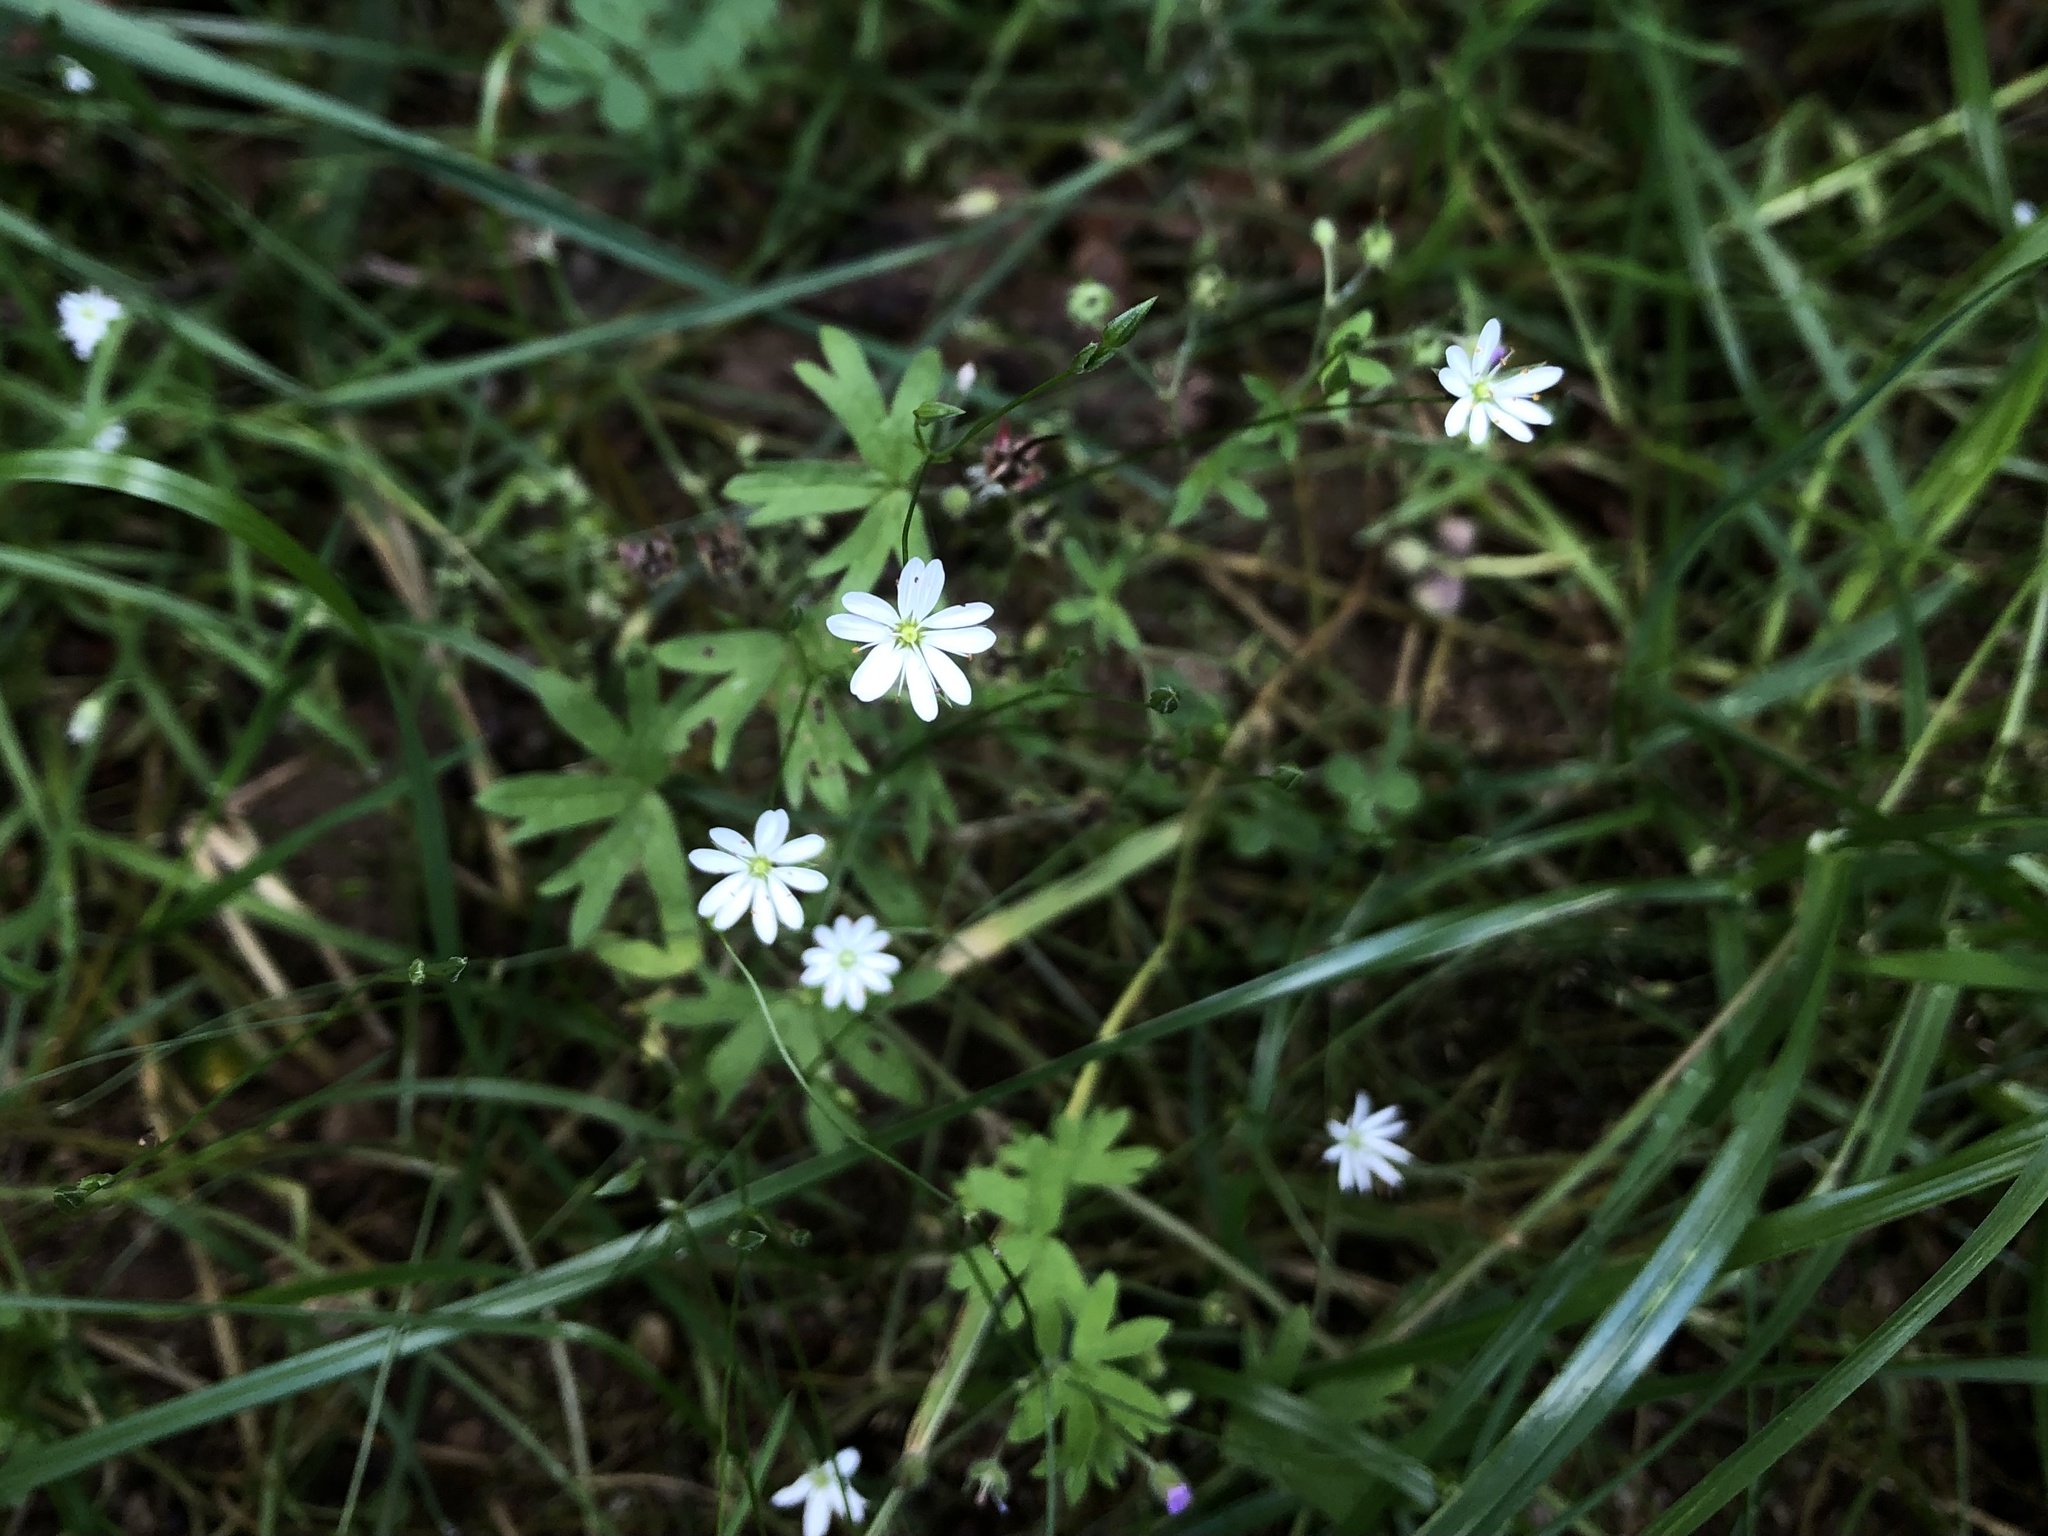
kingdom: Plantae
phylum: Tracheophyta
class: Magnoliopsida
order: Caryophyllales
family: Caryophyllaceae
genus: Stellaria
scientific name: Stellaria graminea
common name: Grass-like starwort
